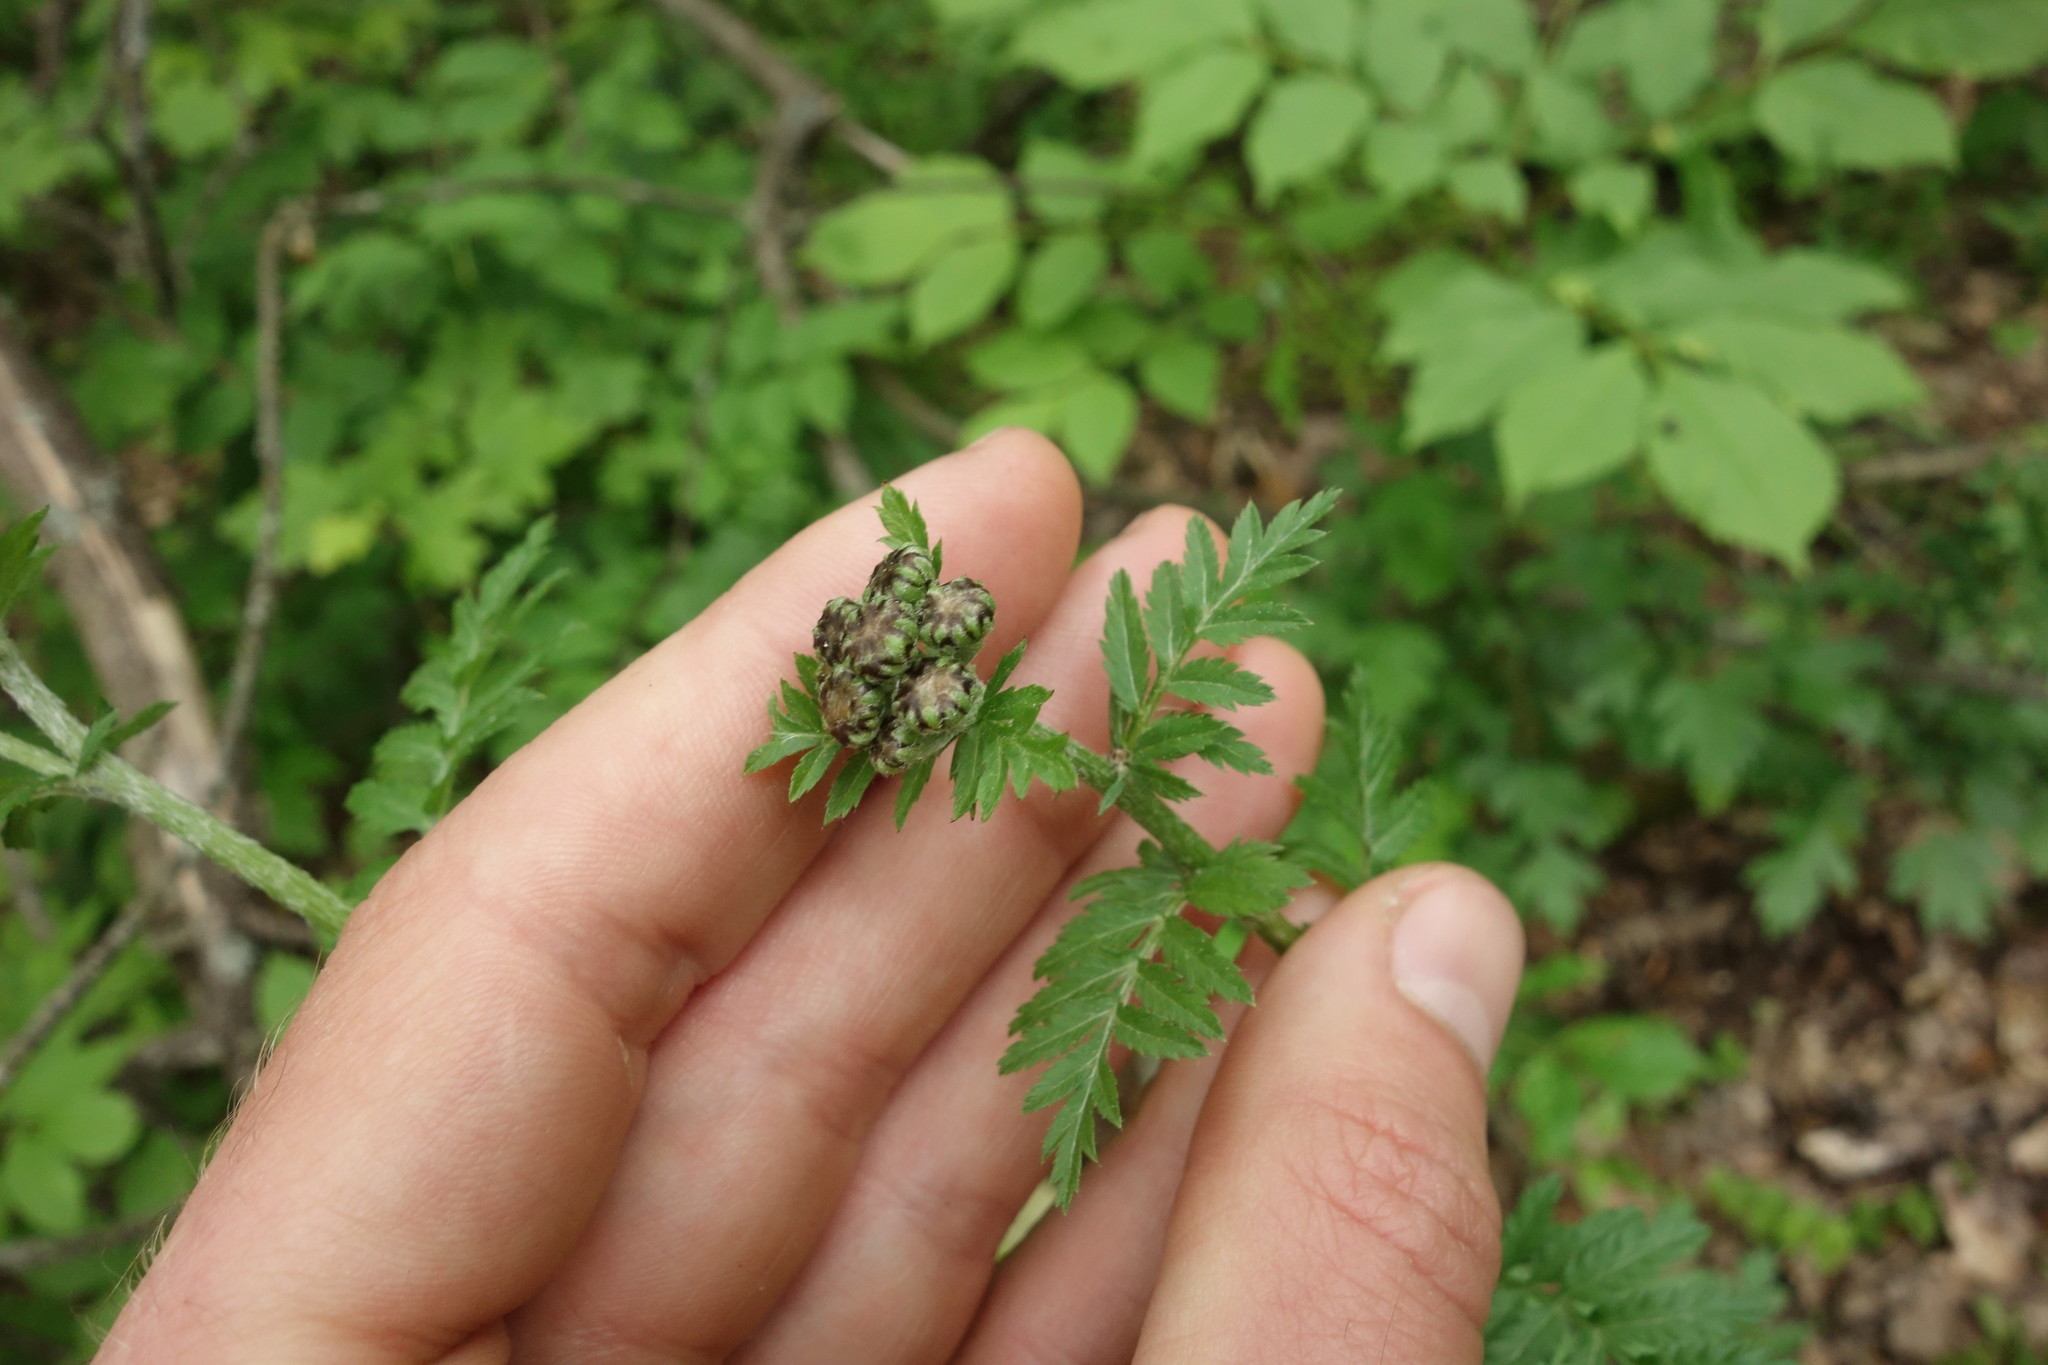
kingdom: Plantae
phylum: Tracheophyta
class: Magnoliopsida
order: Asterales
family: Asteraceae
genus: Tanacetum
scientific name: Tanacetum corymbosum
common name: Scentless feverfew
